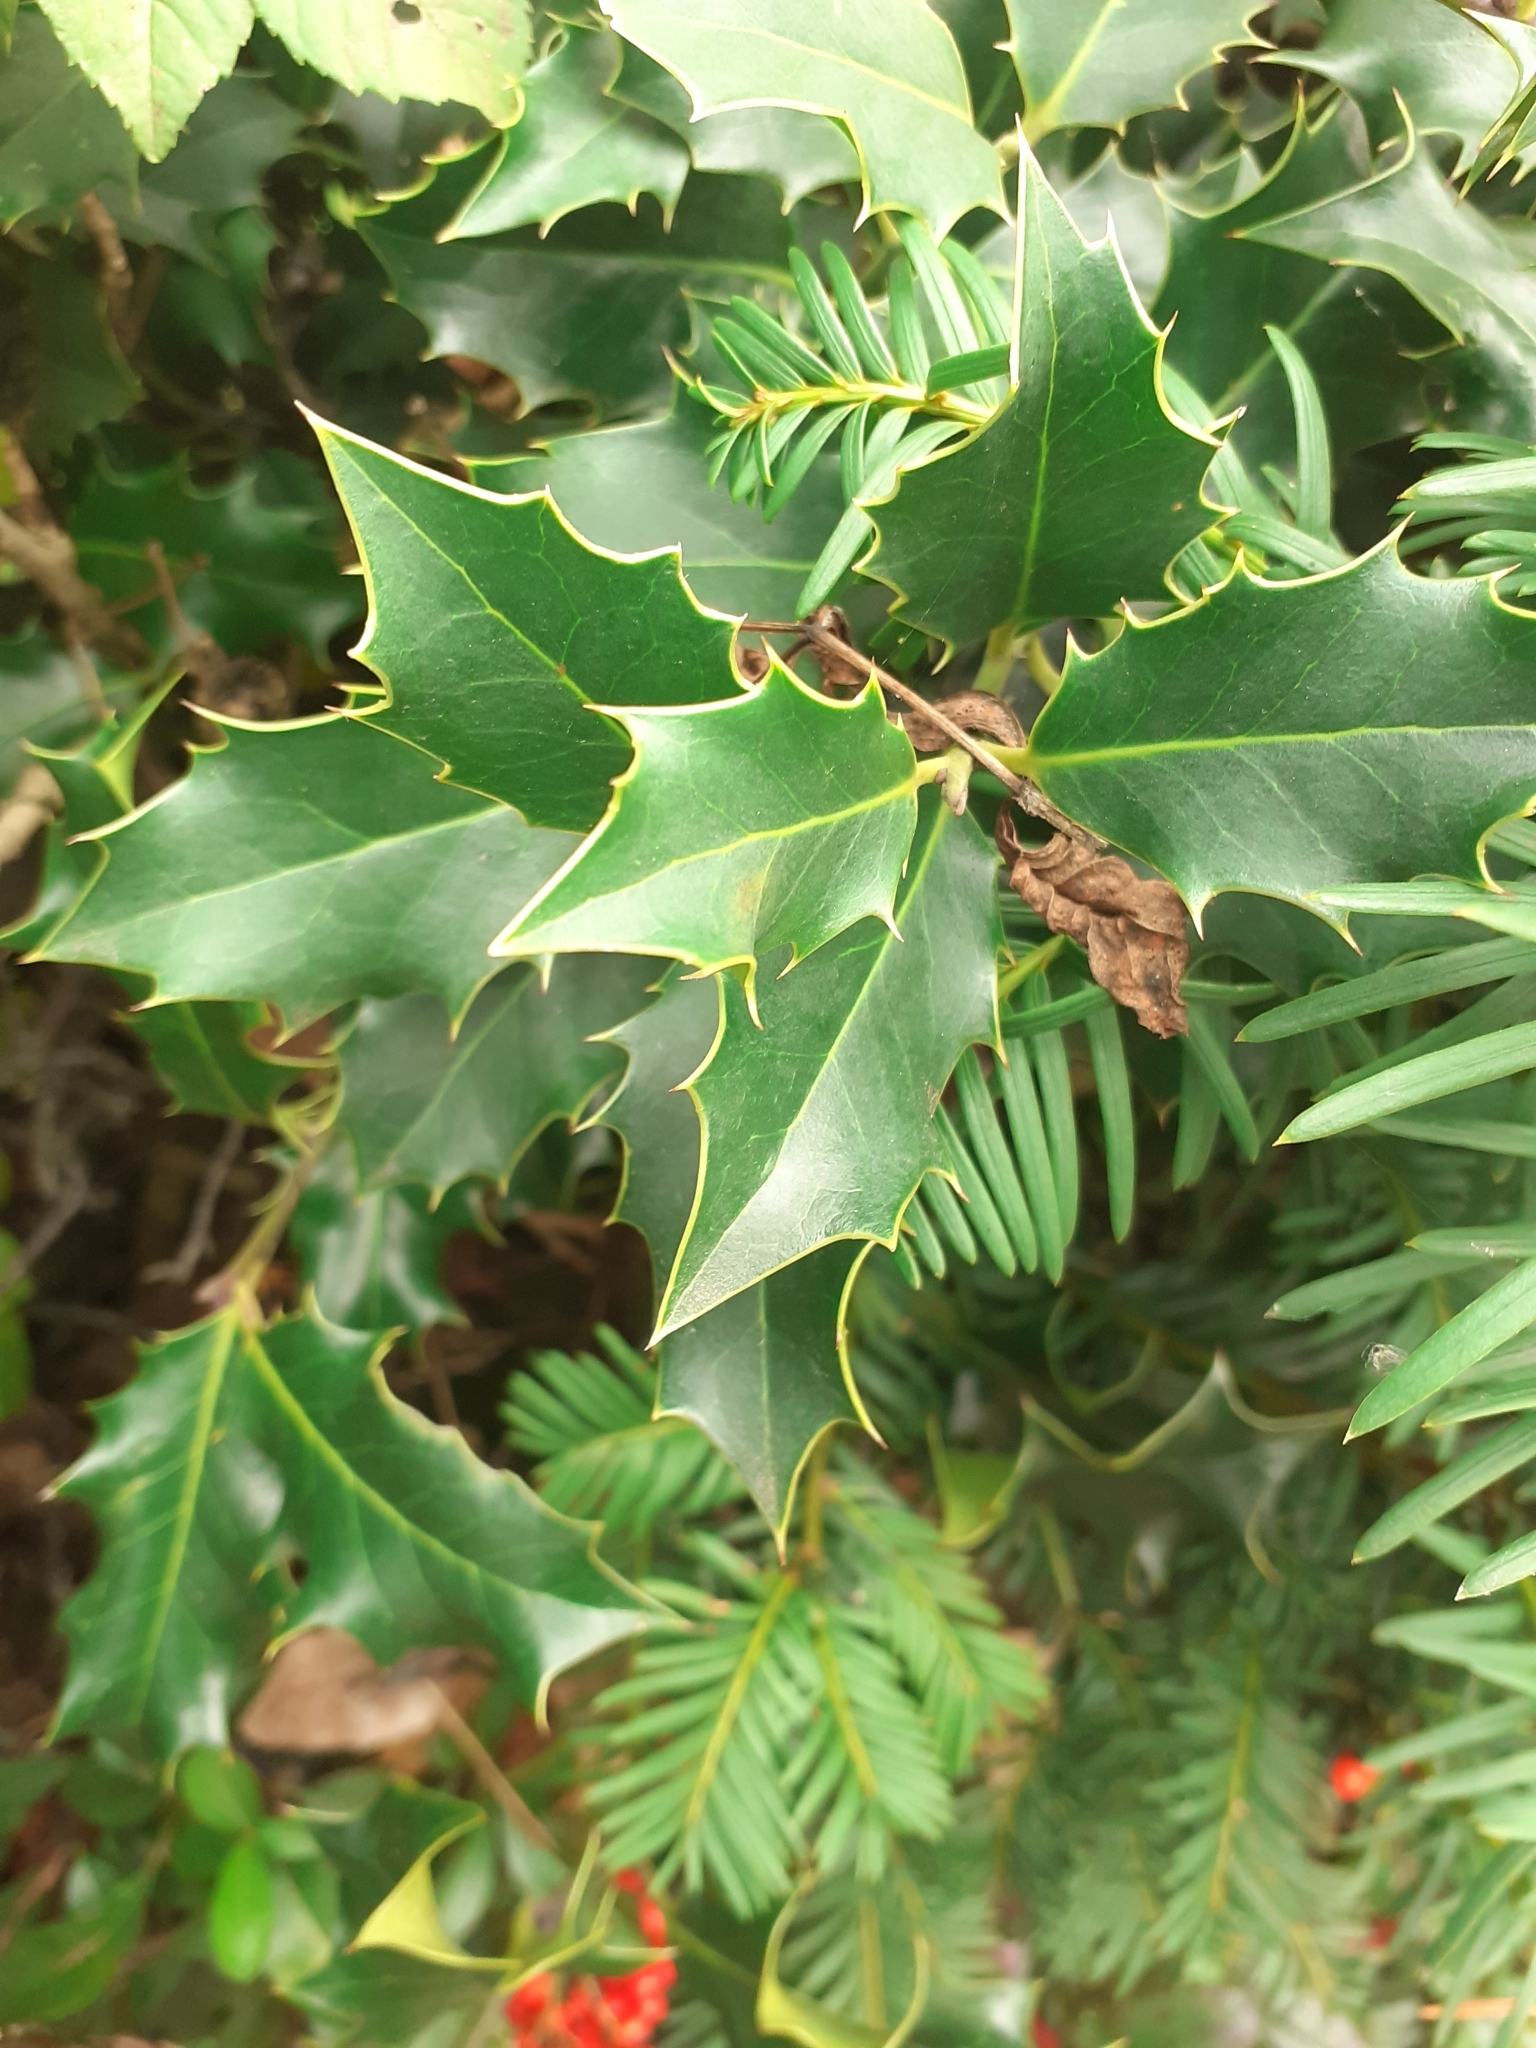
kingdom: Plantae
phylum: Tracheophyta
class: Magnoliopsida
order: Aquifoliales
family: Aquifoliaceae
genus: Ilex
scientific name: Ilex aquifolium
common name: English holly
